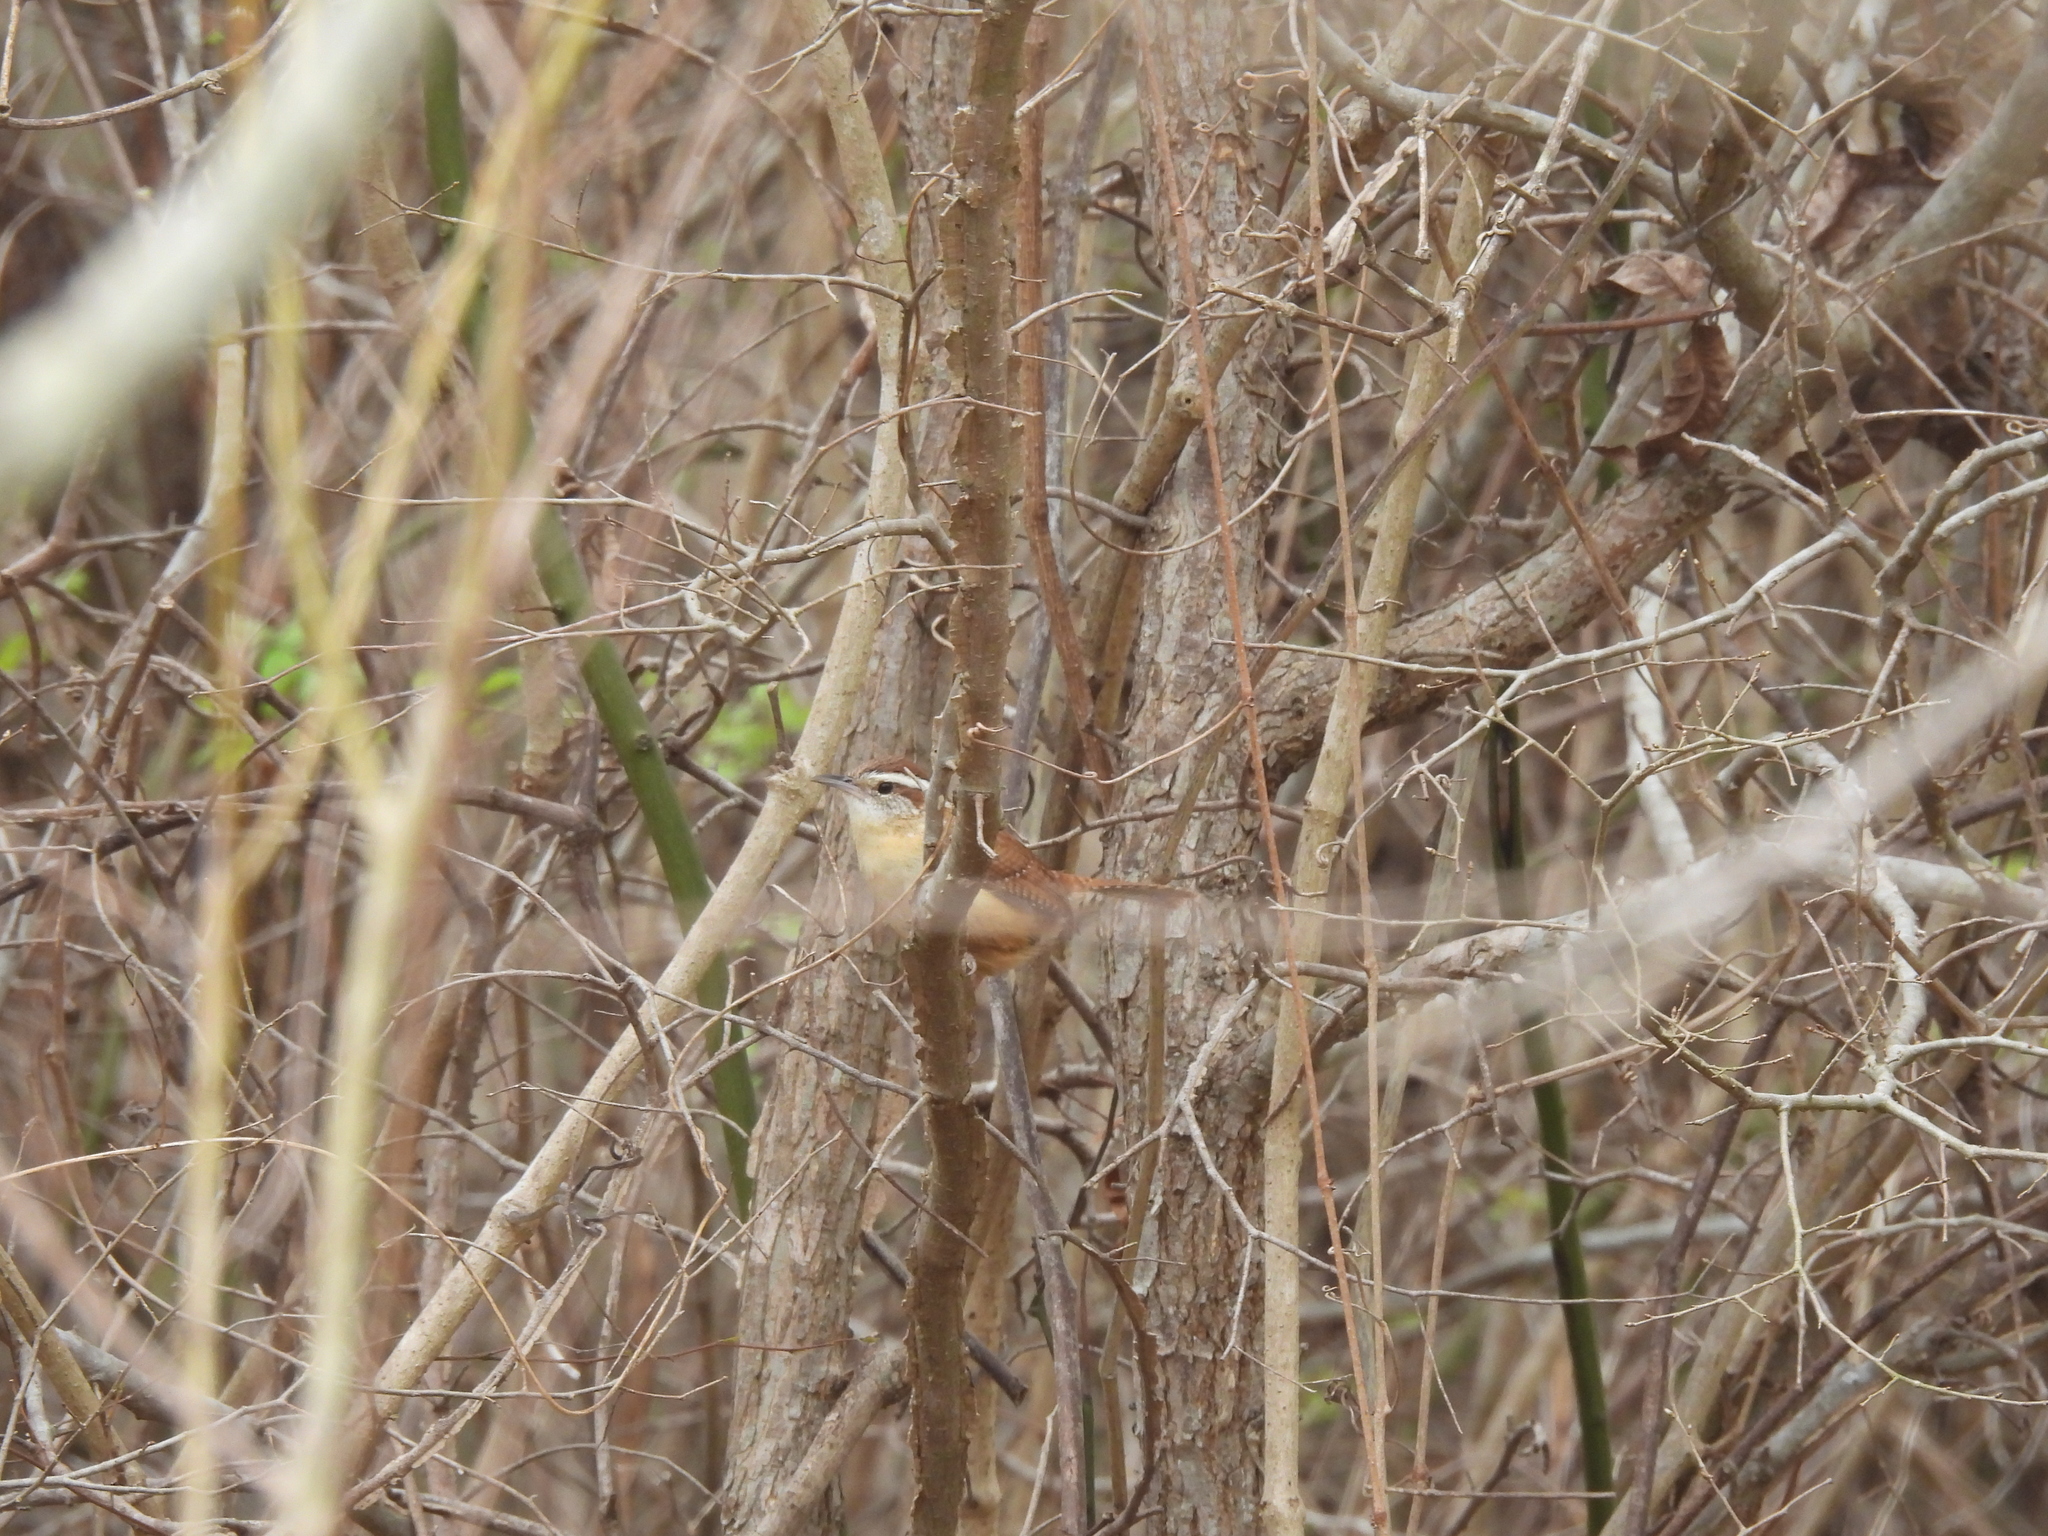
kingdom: Animalia
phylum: Chordata
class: Aves
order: Passeriformes
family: Troglodytidae
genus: Thryothorus
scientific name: Thryothorus ludovicianus
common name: Carolina wren
